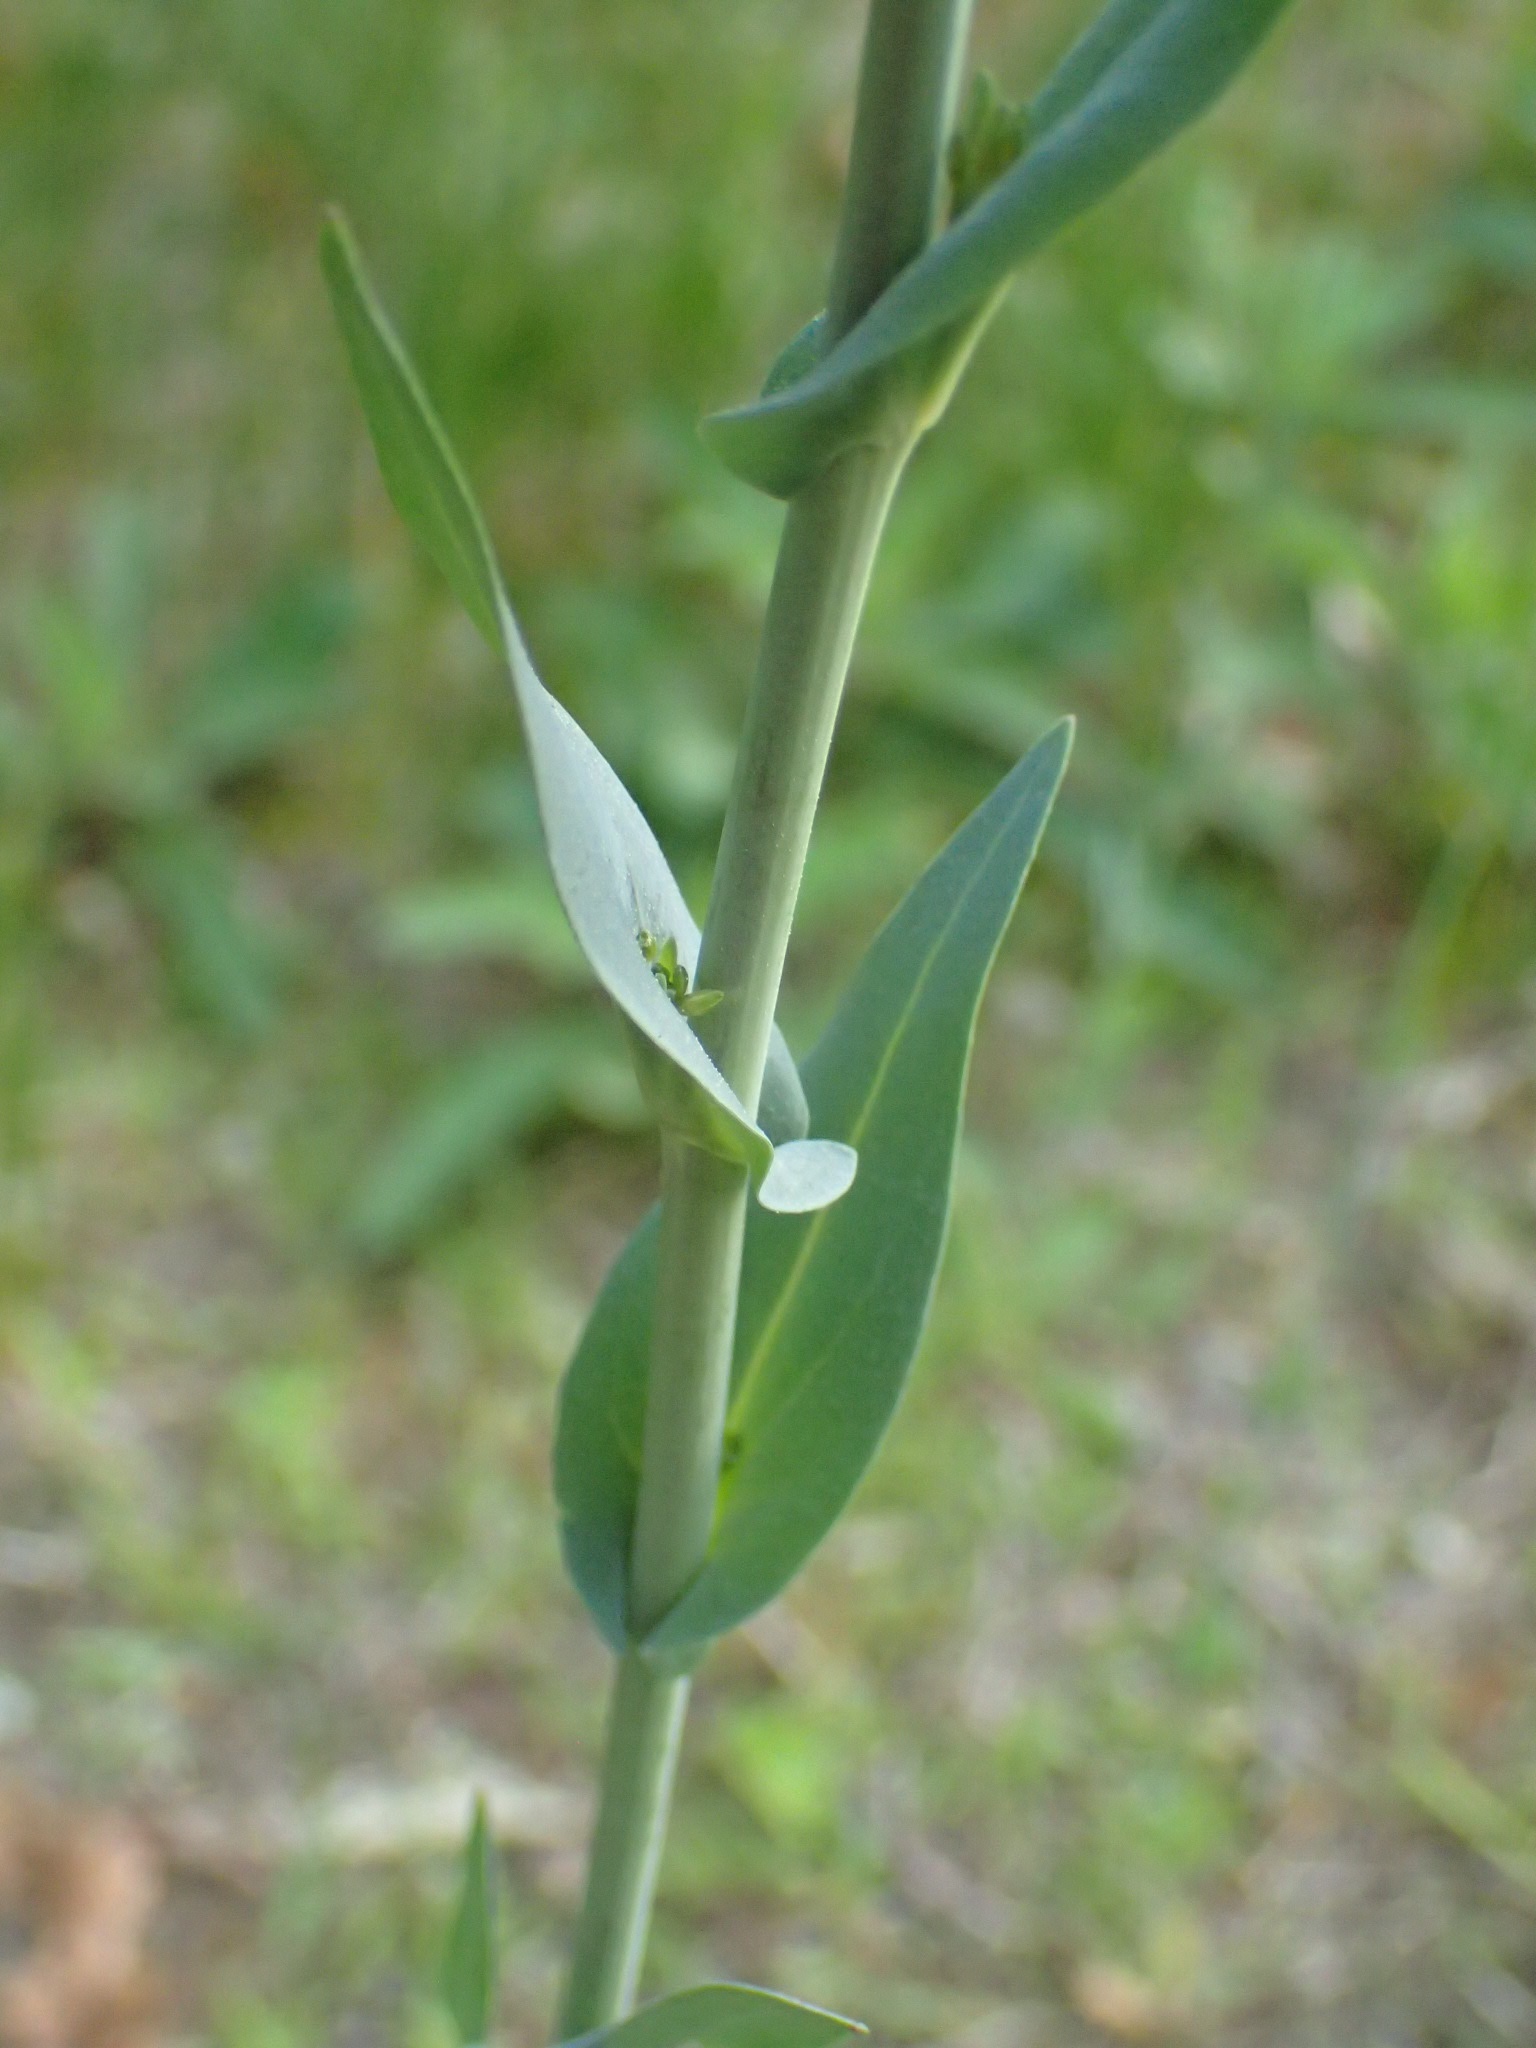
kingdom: Plantae
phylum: Tracheophyta
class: Magnoliopsida
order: Brassicales
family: Brassicaceae
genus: Turritis
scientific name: Turritis glabra
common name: Tower rockcress
